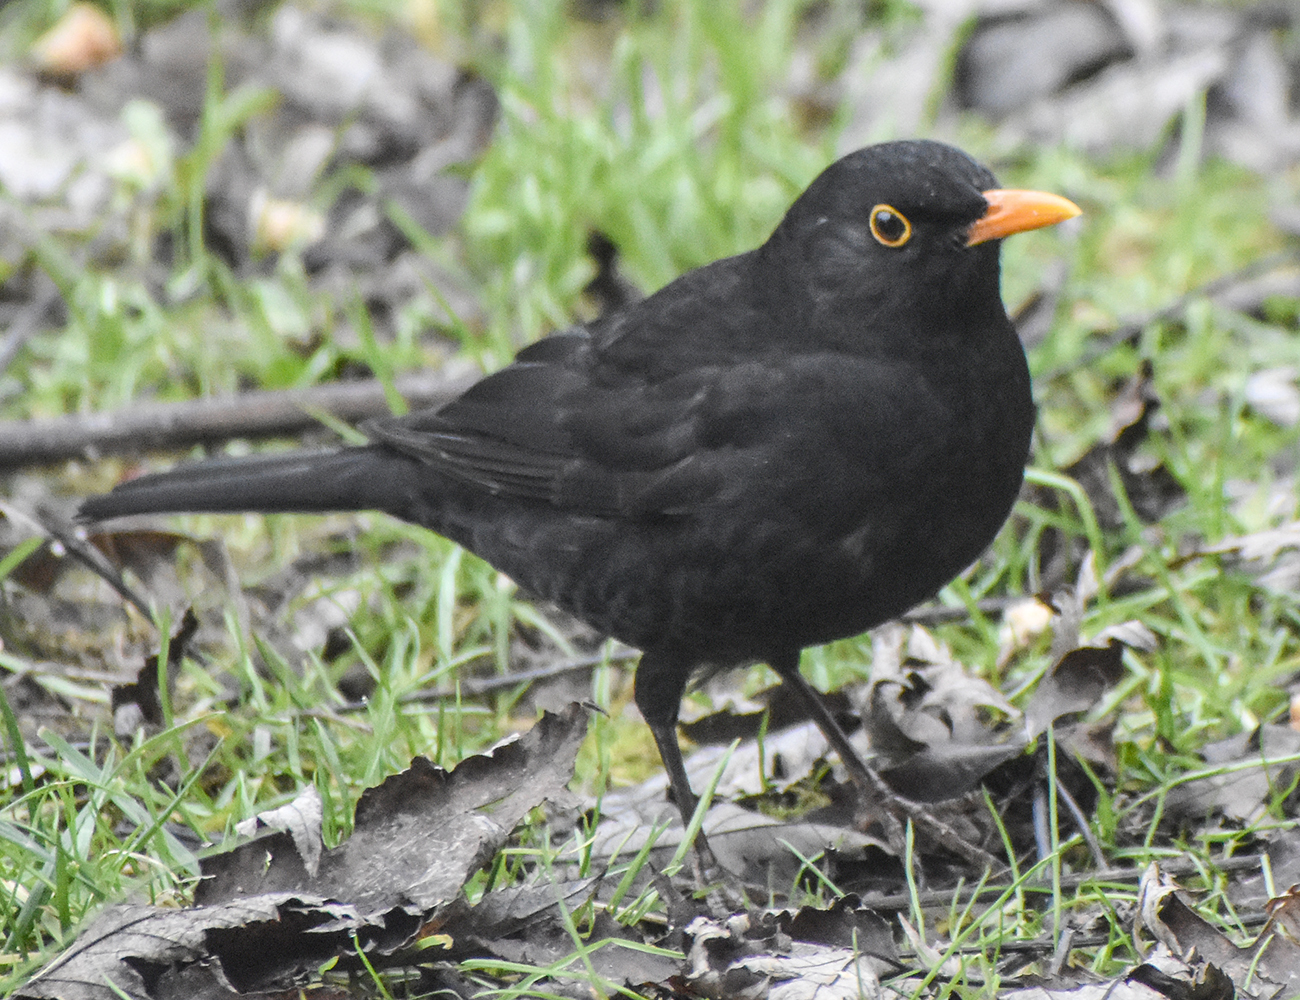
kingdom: Animalia
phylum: Chordata
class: Aves
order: Passeriformes
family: Turdidae
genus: Turdus
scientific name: Turdus merula
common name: Common blackbird
